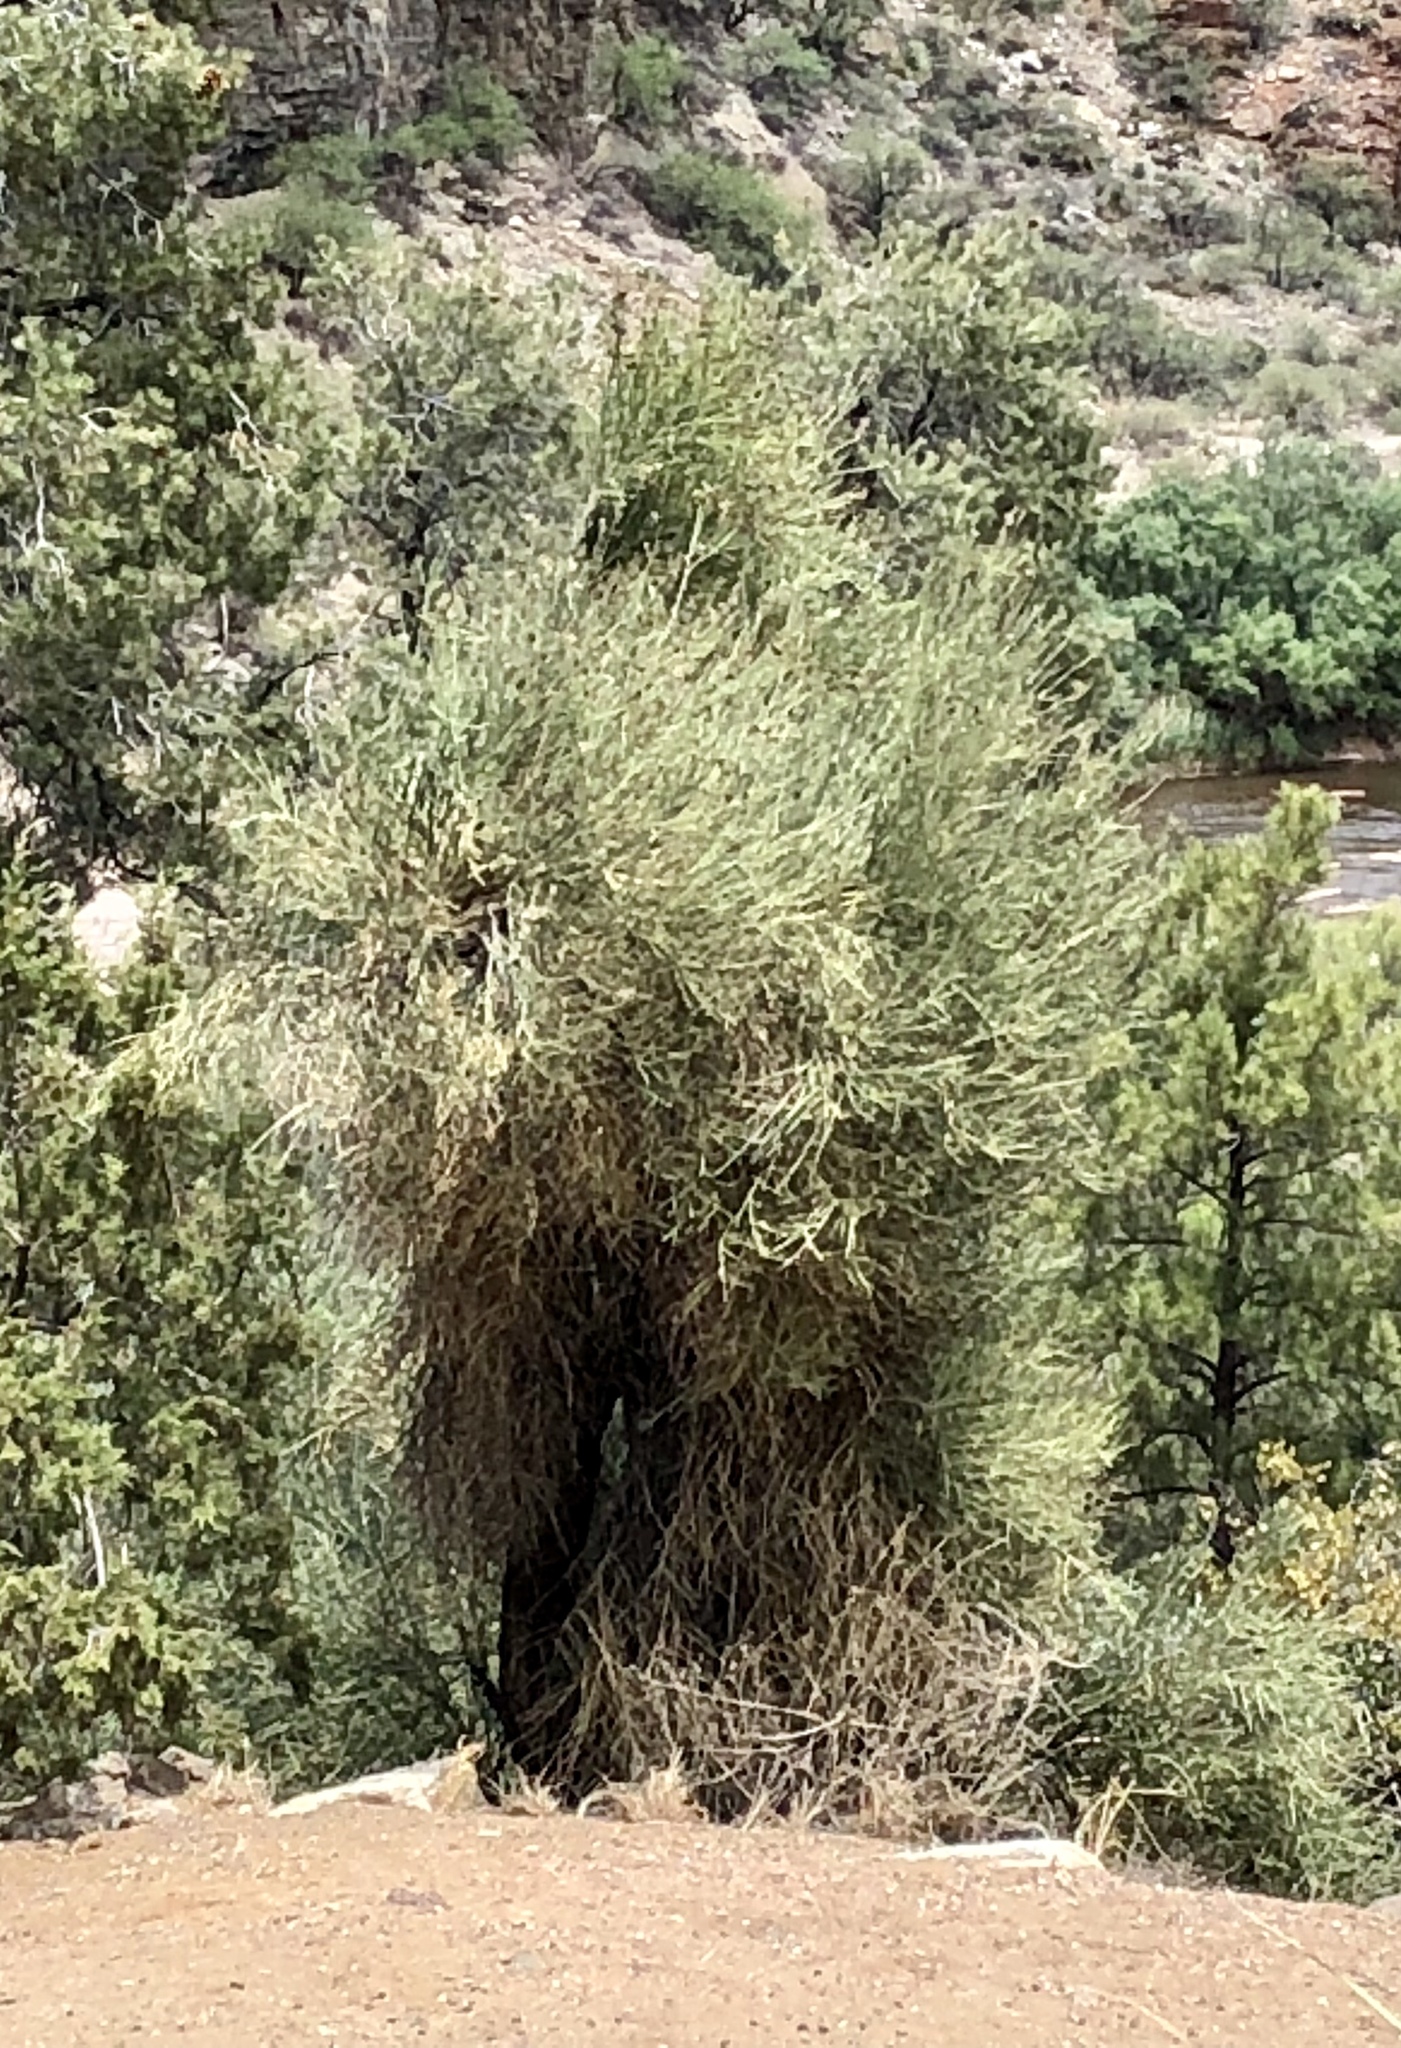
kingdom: Plantae
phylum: Tracheophyta
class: Magnoliopsida
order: Celastrales
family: Celastraceae
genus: Canotia
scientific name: Canotia holacantha
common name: Crucifixion thorns
